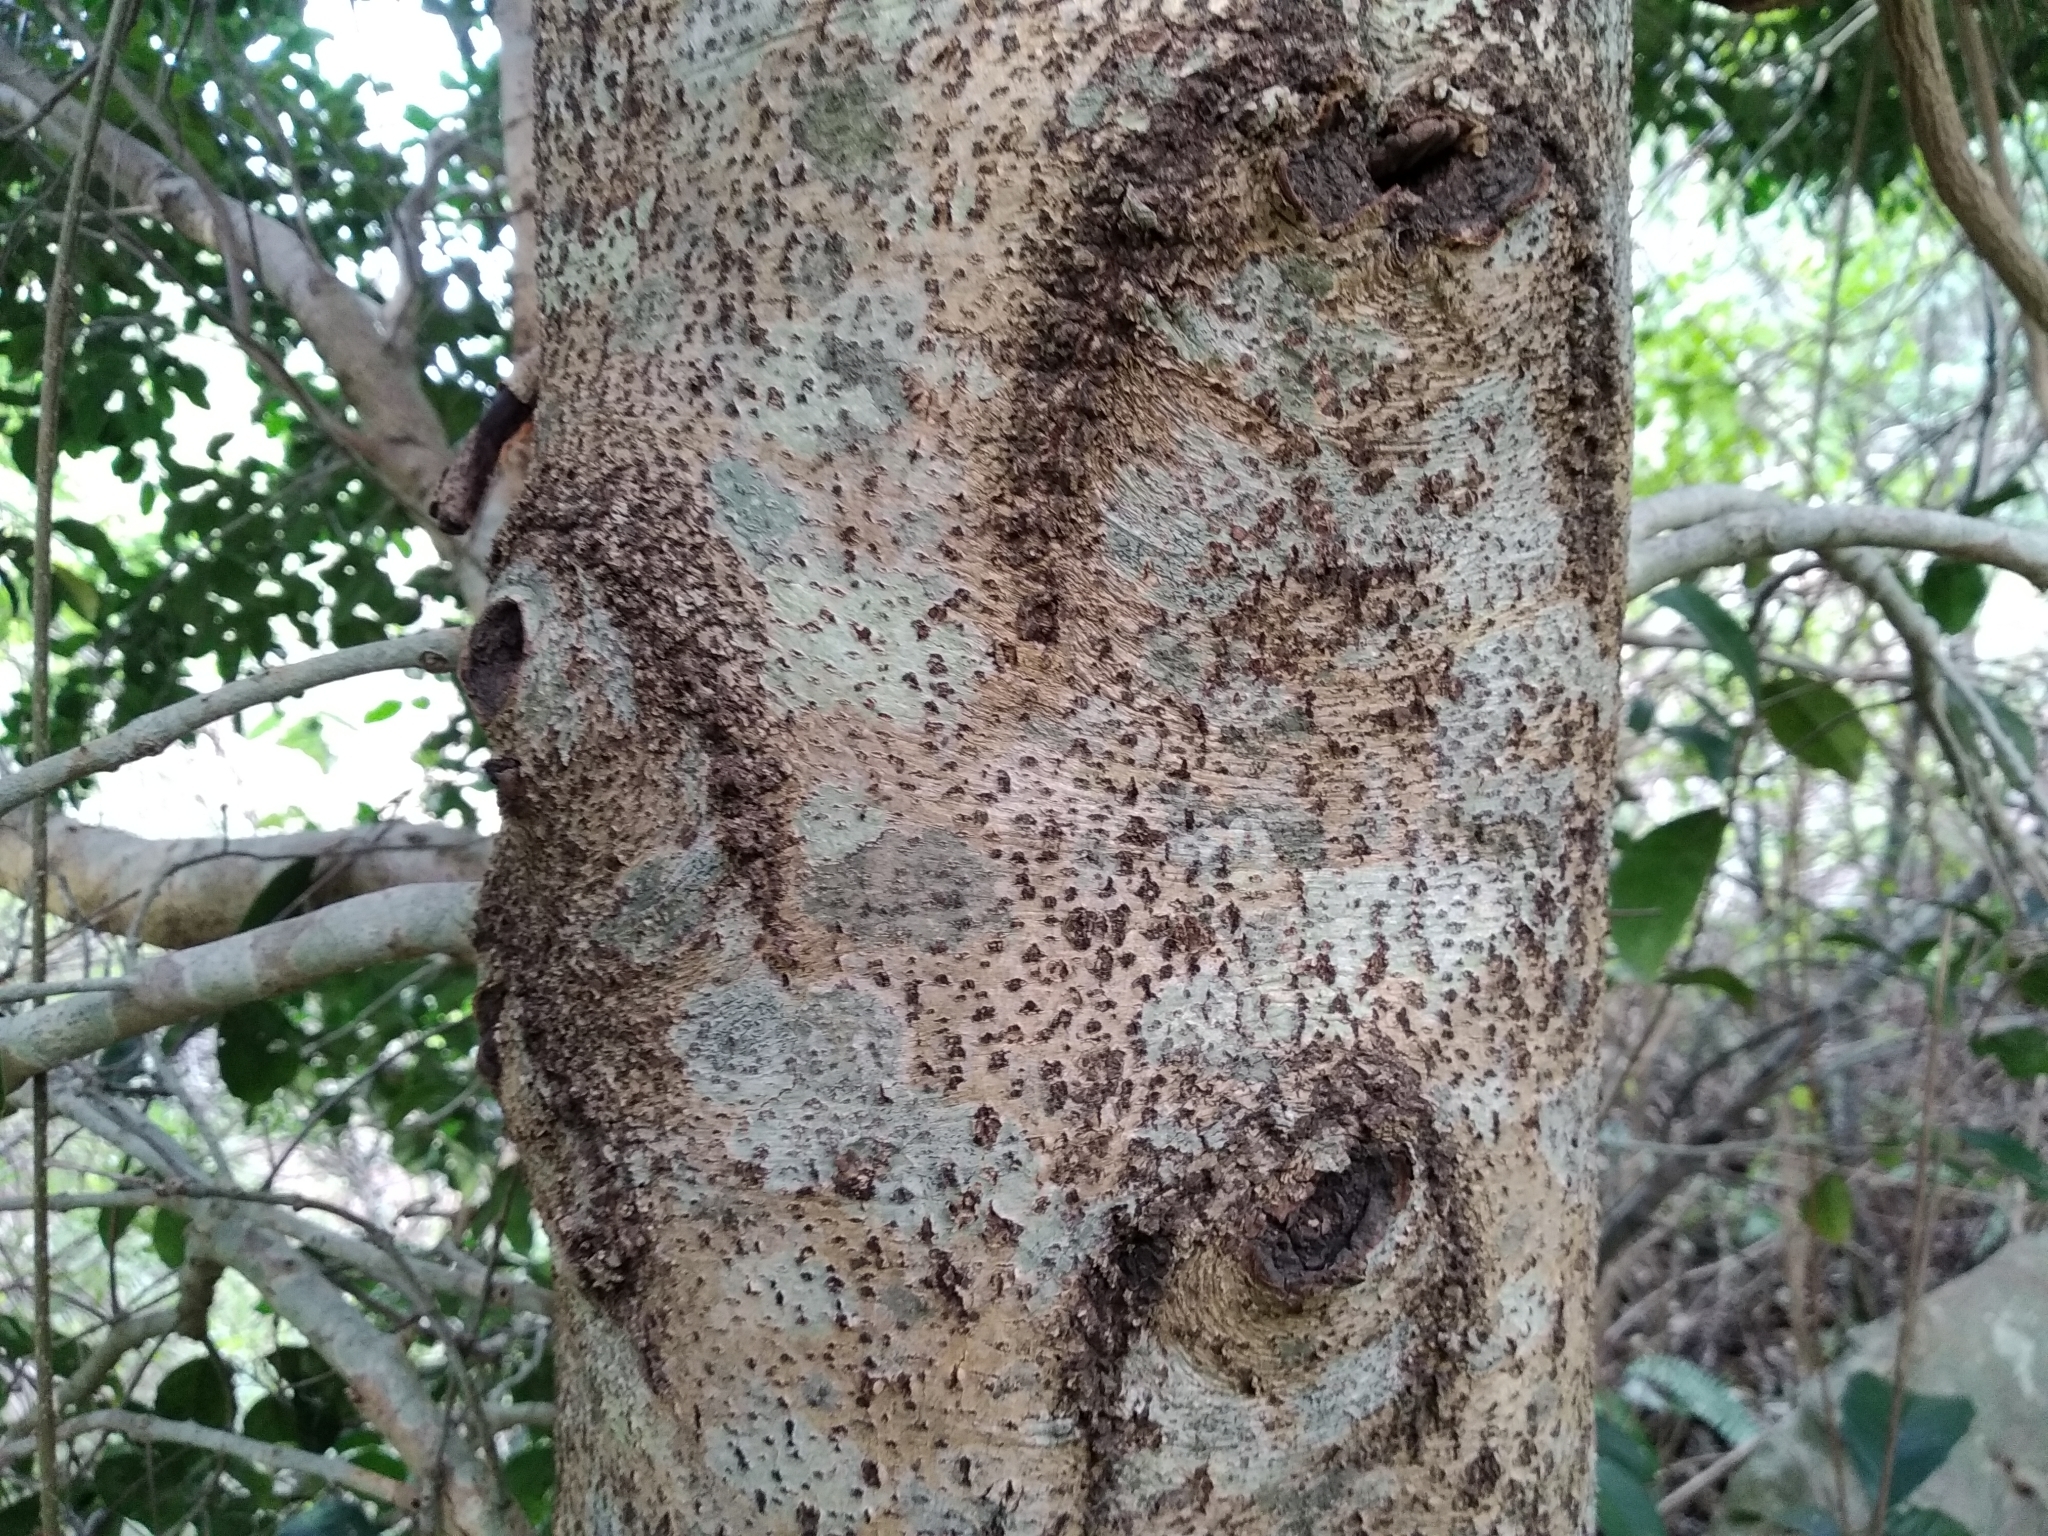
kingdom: Plantae
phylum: Tracheophyta
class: Magnoliopsida
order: Celastrales
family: Celastraceae
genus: Elaeodendron
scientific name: Elaeodendron croceum
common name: Saffron
